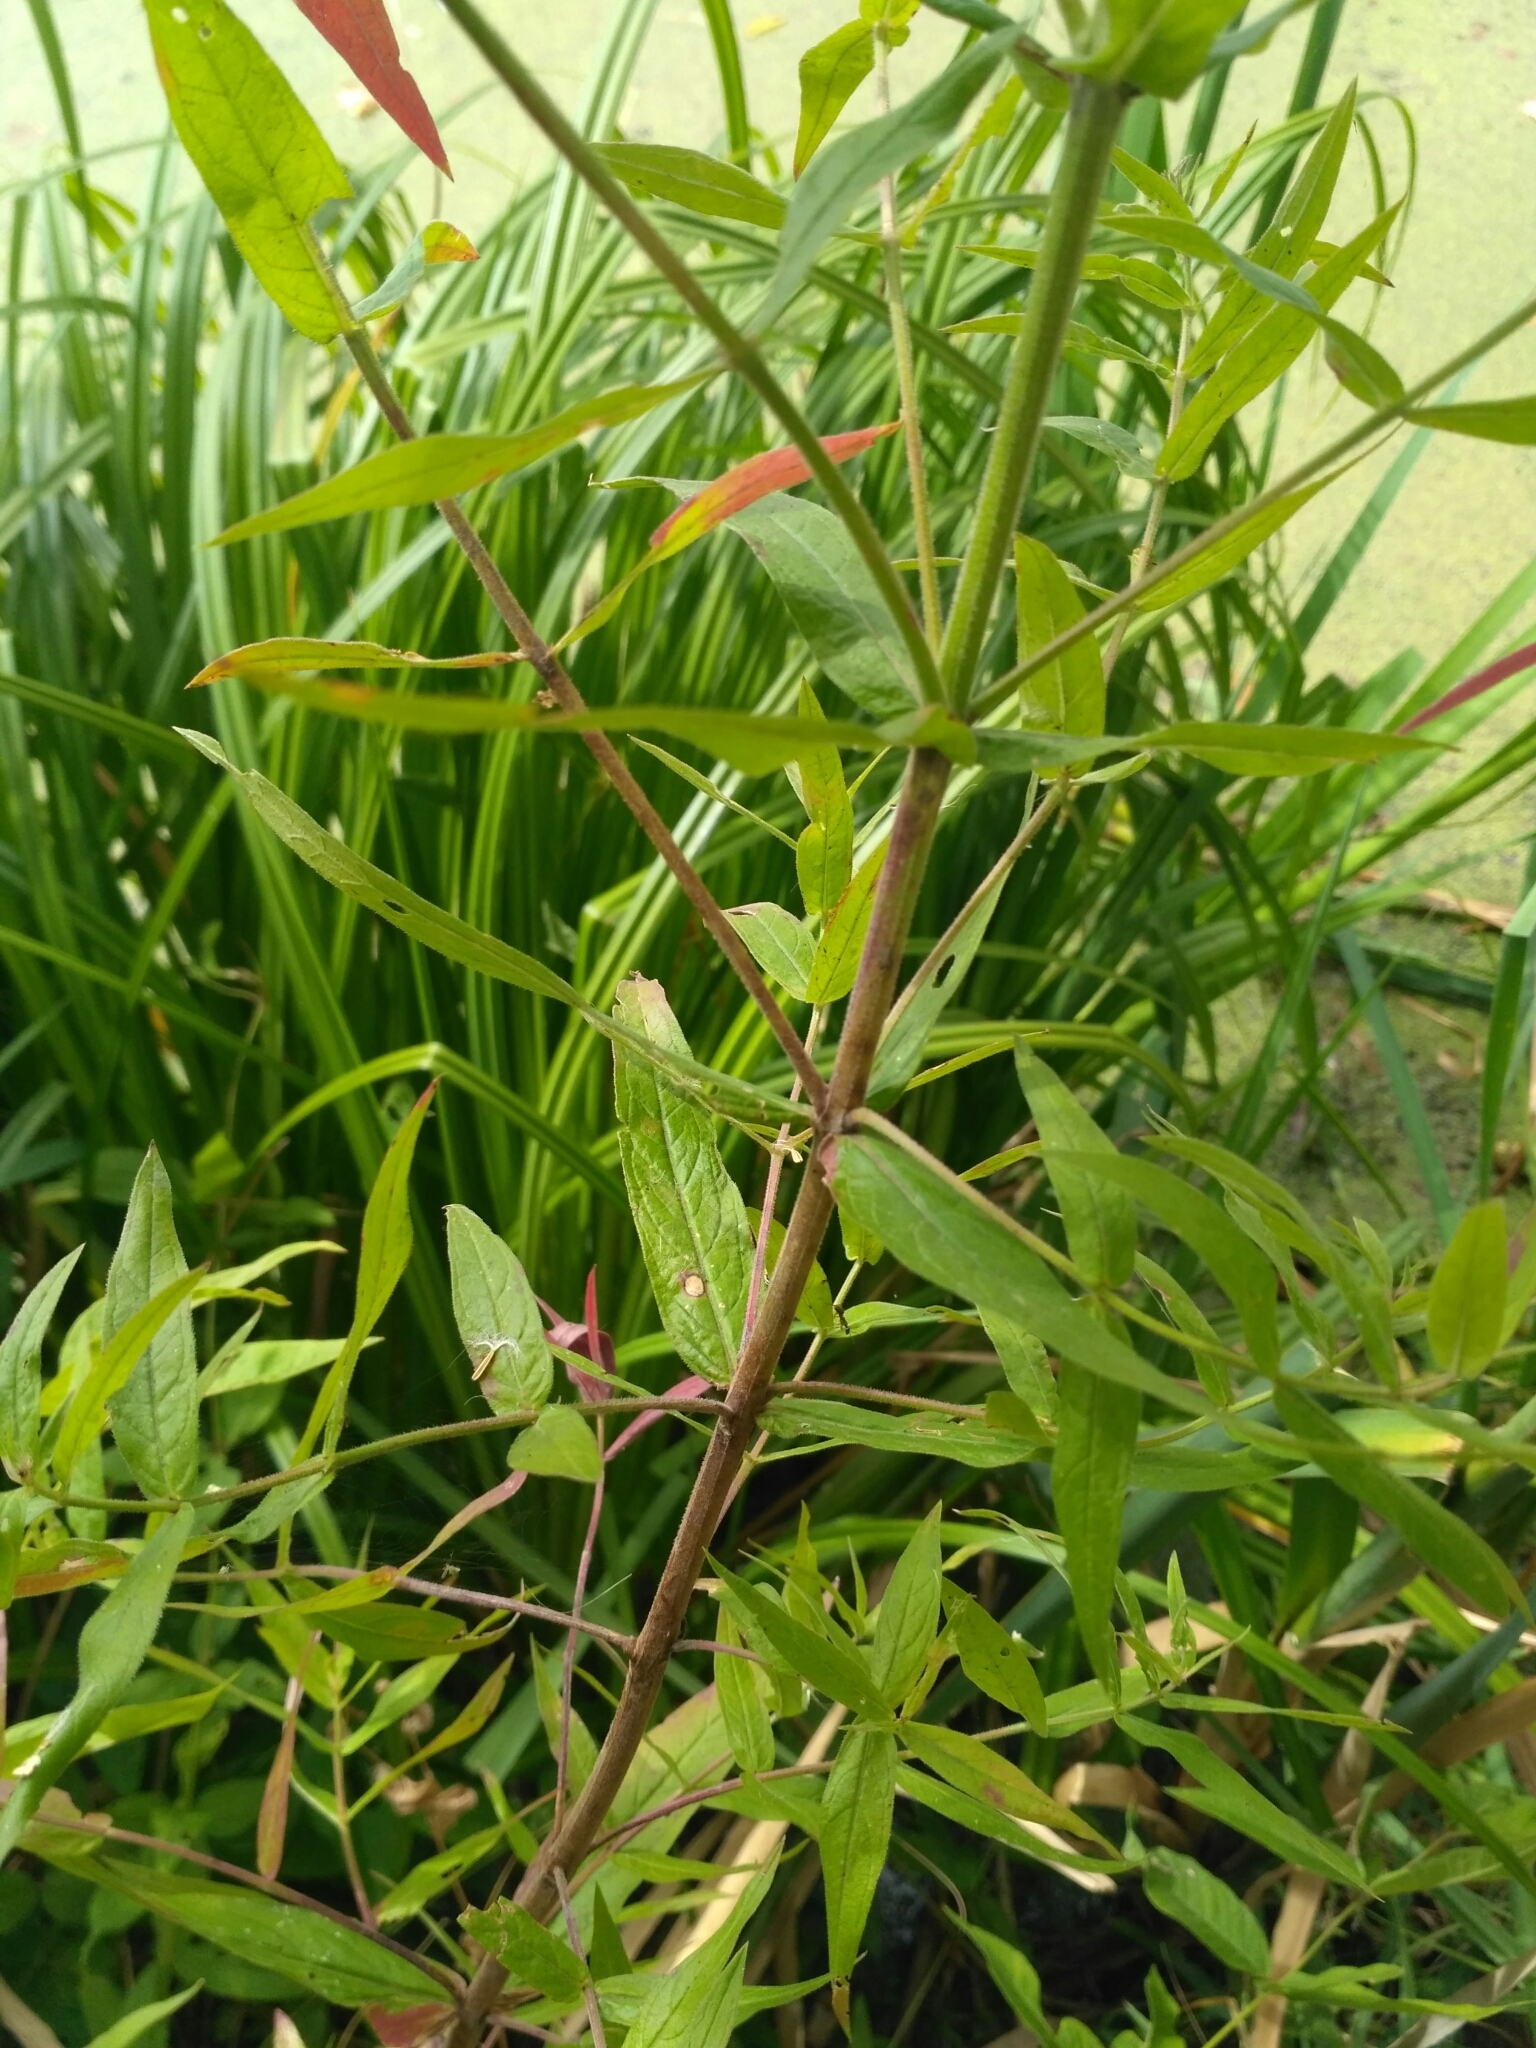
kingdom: Plantae
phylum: Tracheophyta
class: Magnoliopsida
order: Myrtales
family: Lythraceae
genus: Lythrum
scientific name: Lythrum salicaria
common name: Purple loosestrife
